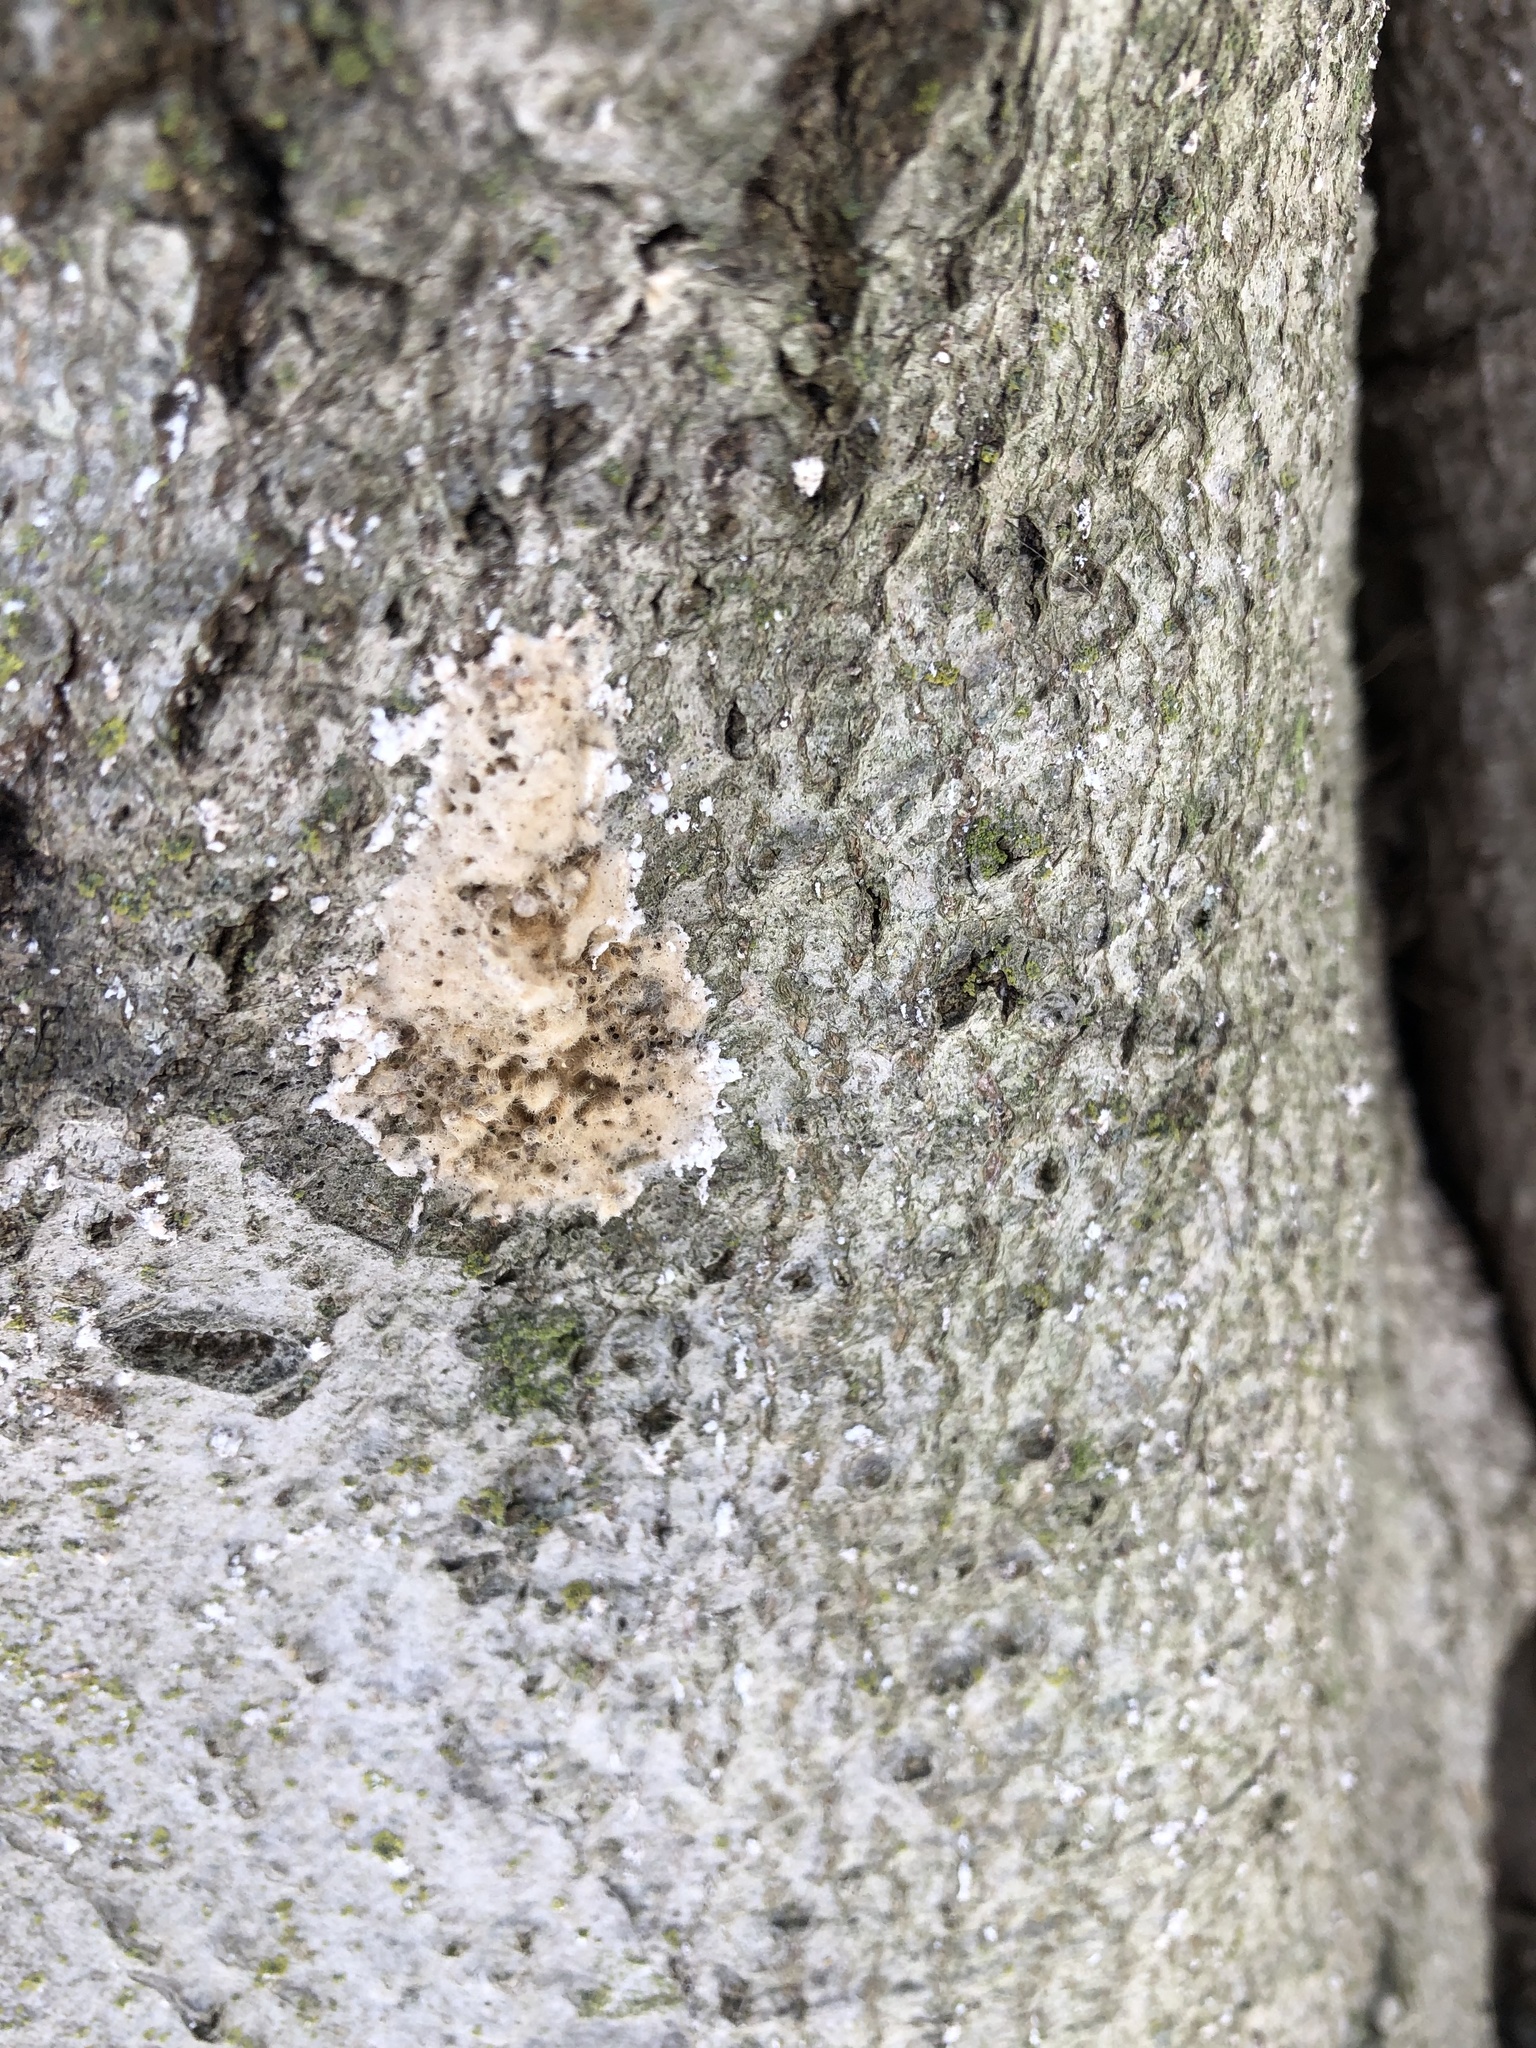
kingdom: Animalia
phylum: Arthropoda
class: Insecta
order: Lepidoptera
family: Erebidae
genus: Lymantria
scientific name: Lymantria dispar
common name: Gypsy moth
